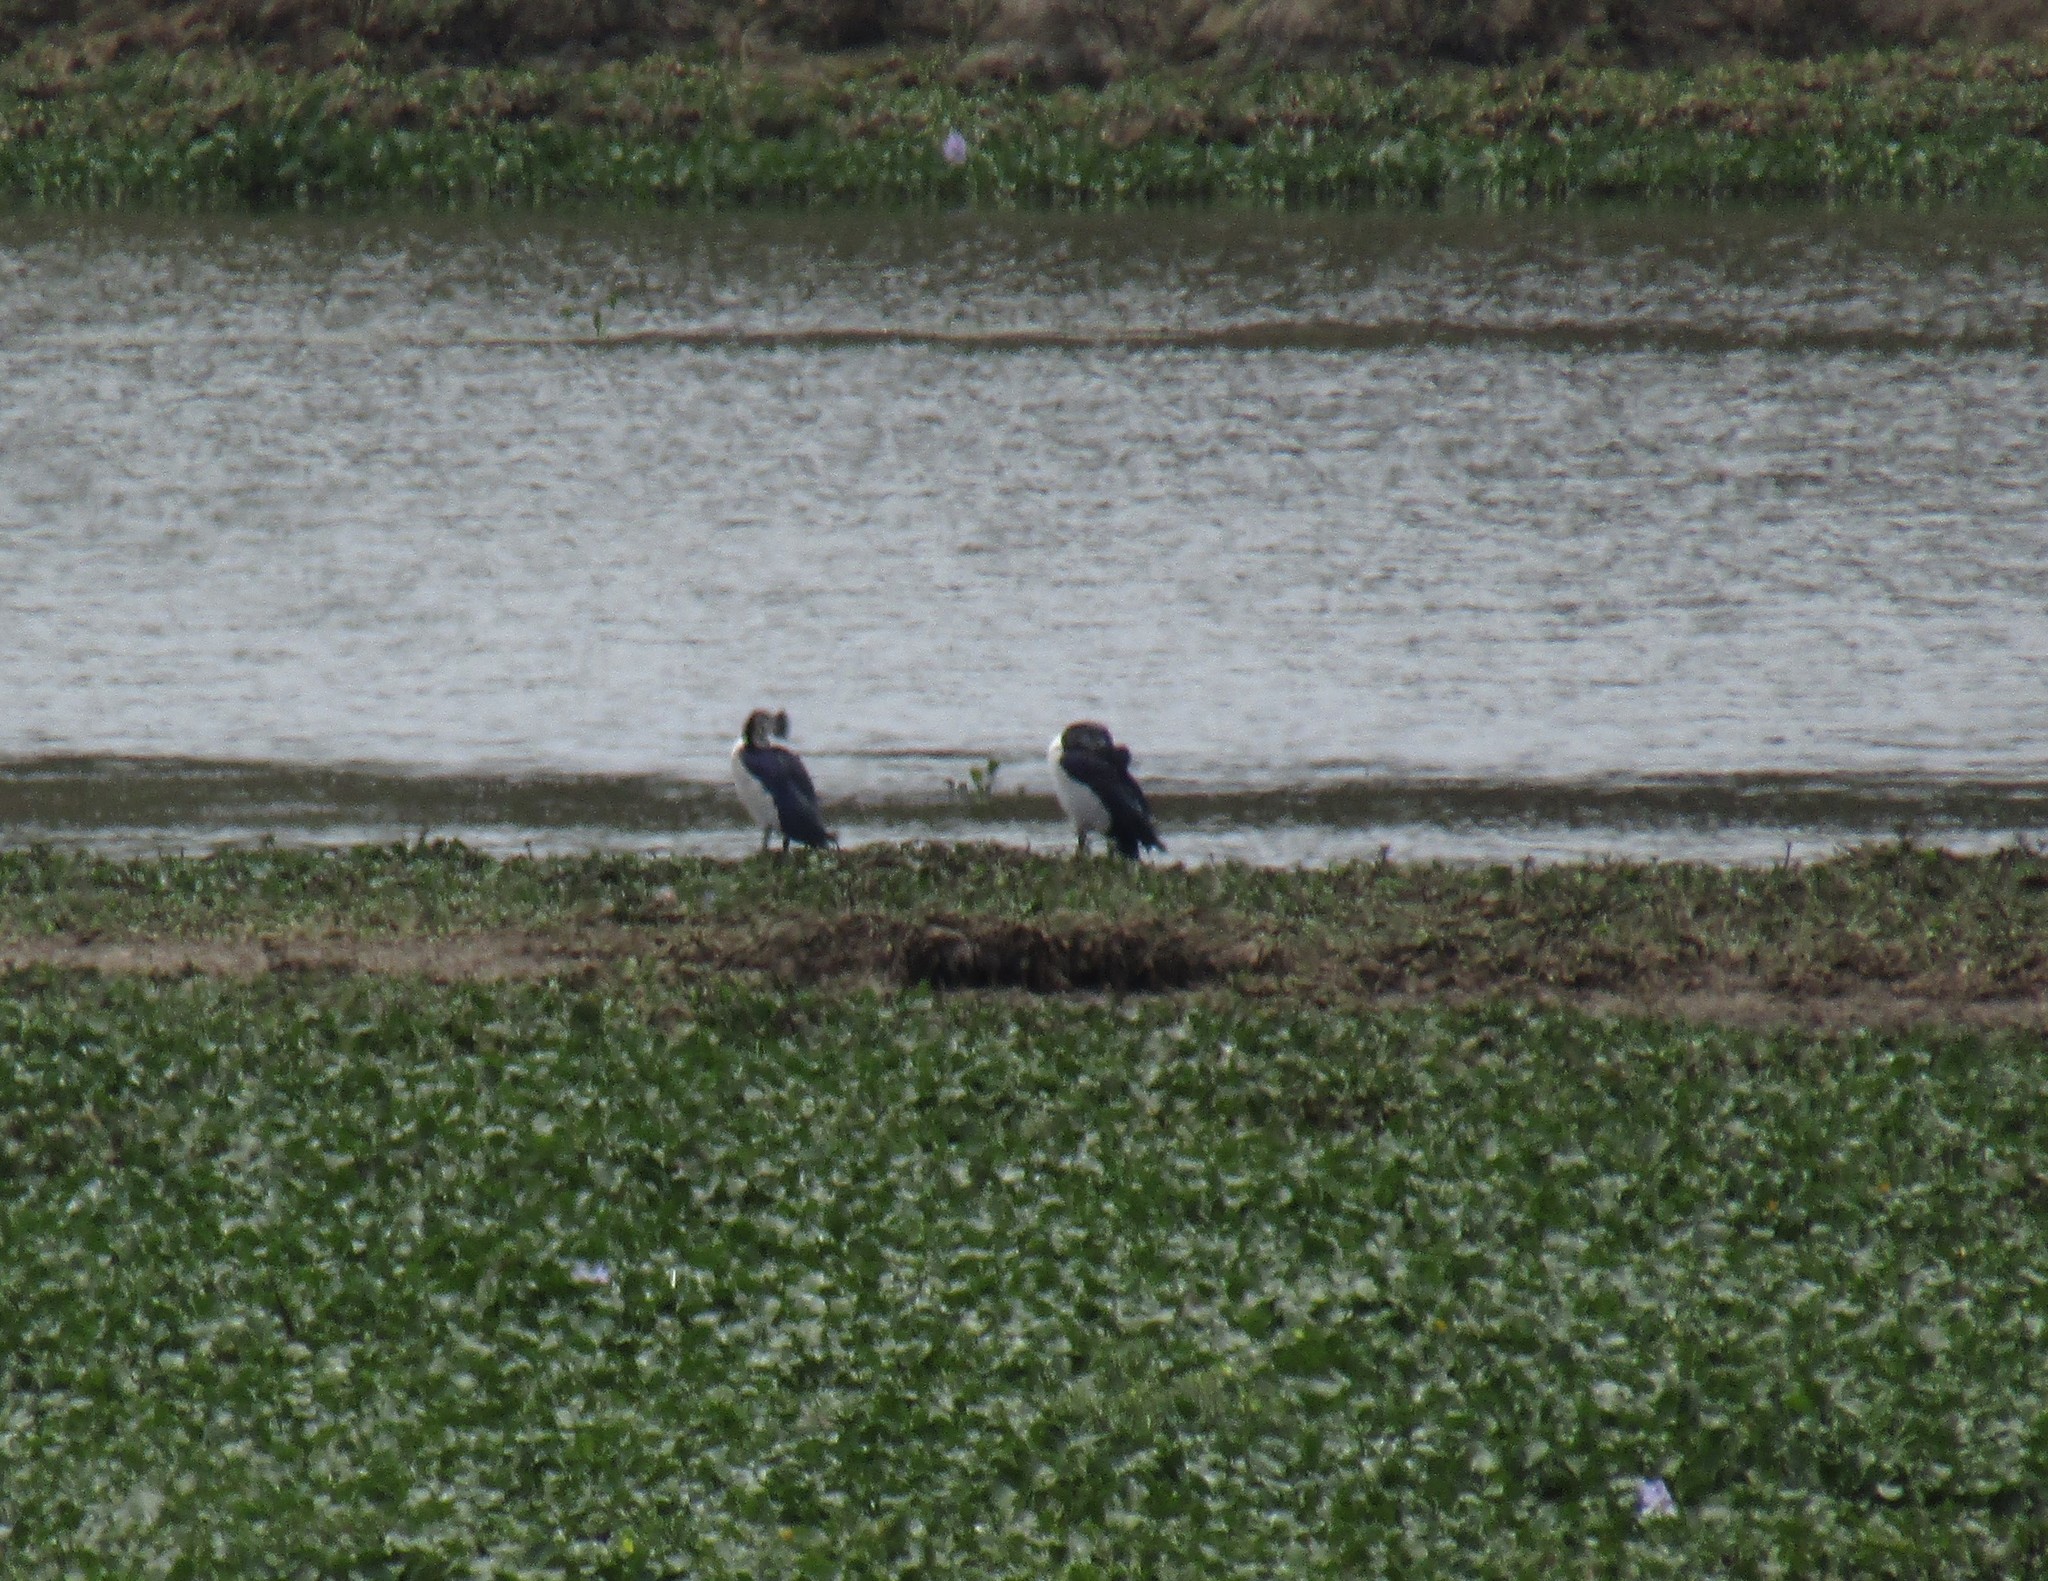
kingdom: Animalia
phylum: Chordata
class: Aves
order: Anseriformes
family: Anatidae
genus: Sarkidiornis
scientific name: Sarkidiornis melanotos
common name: Comb duck
